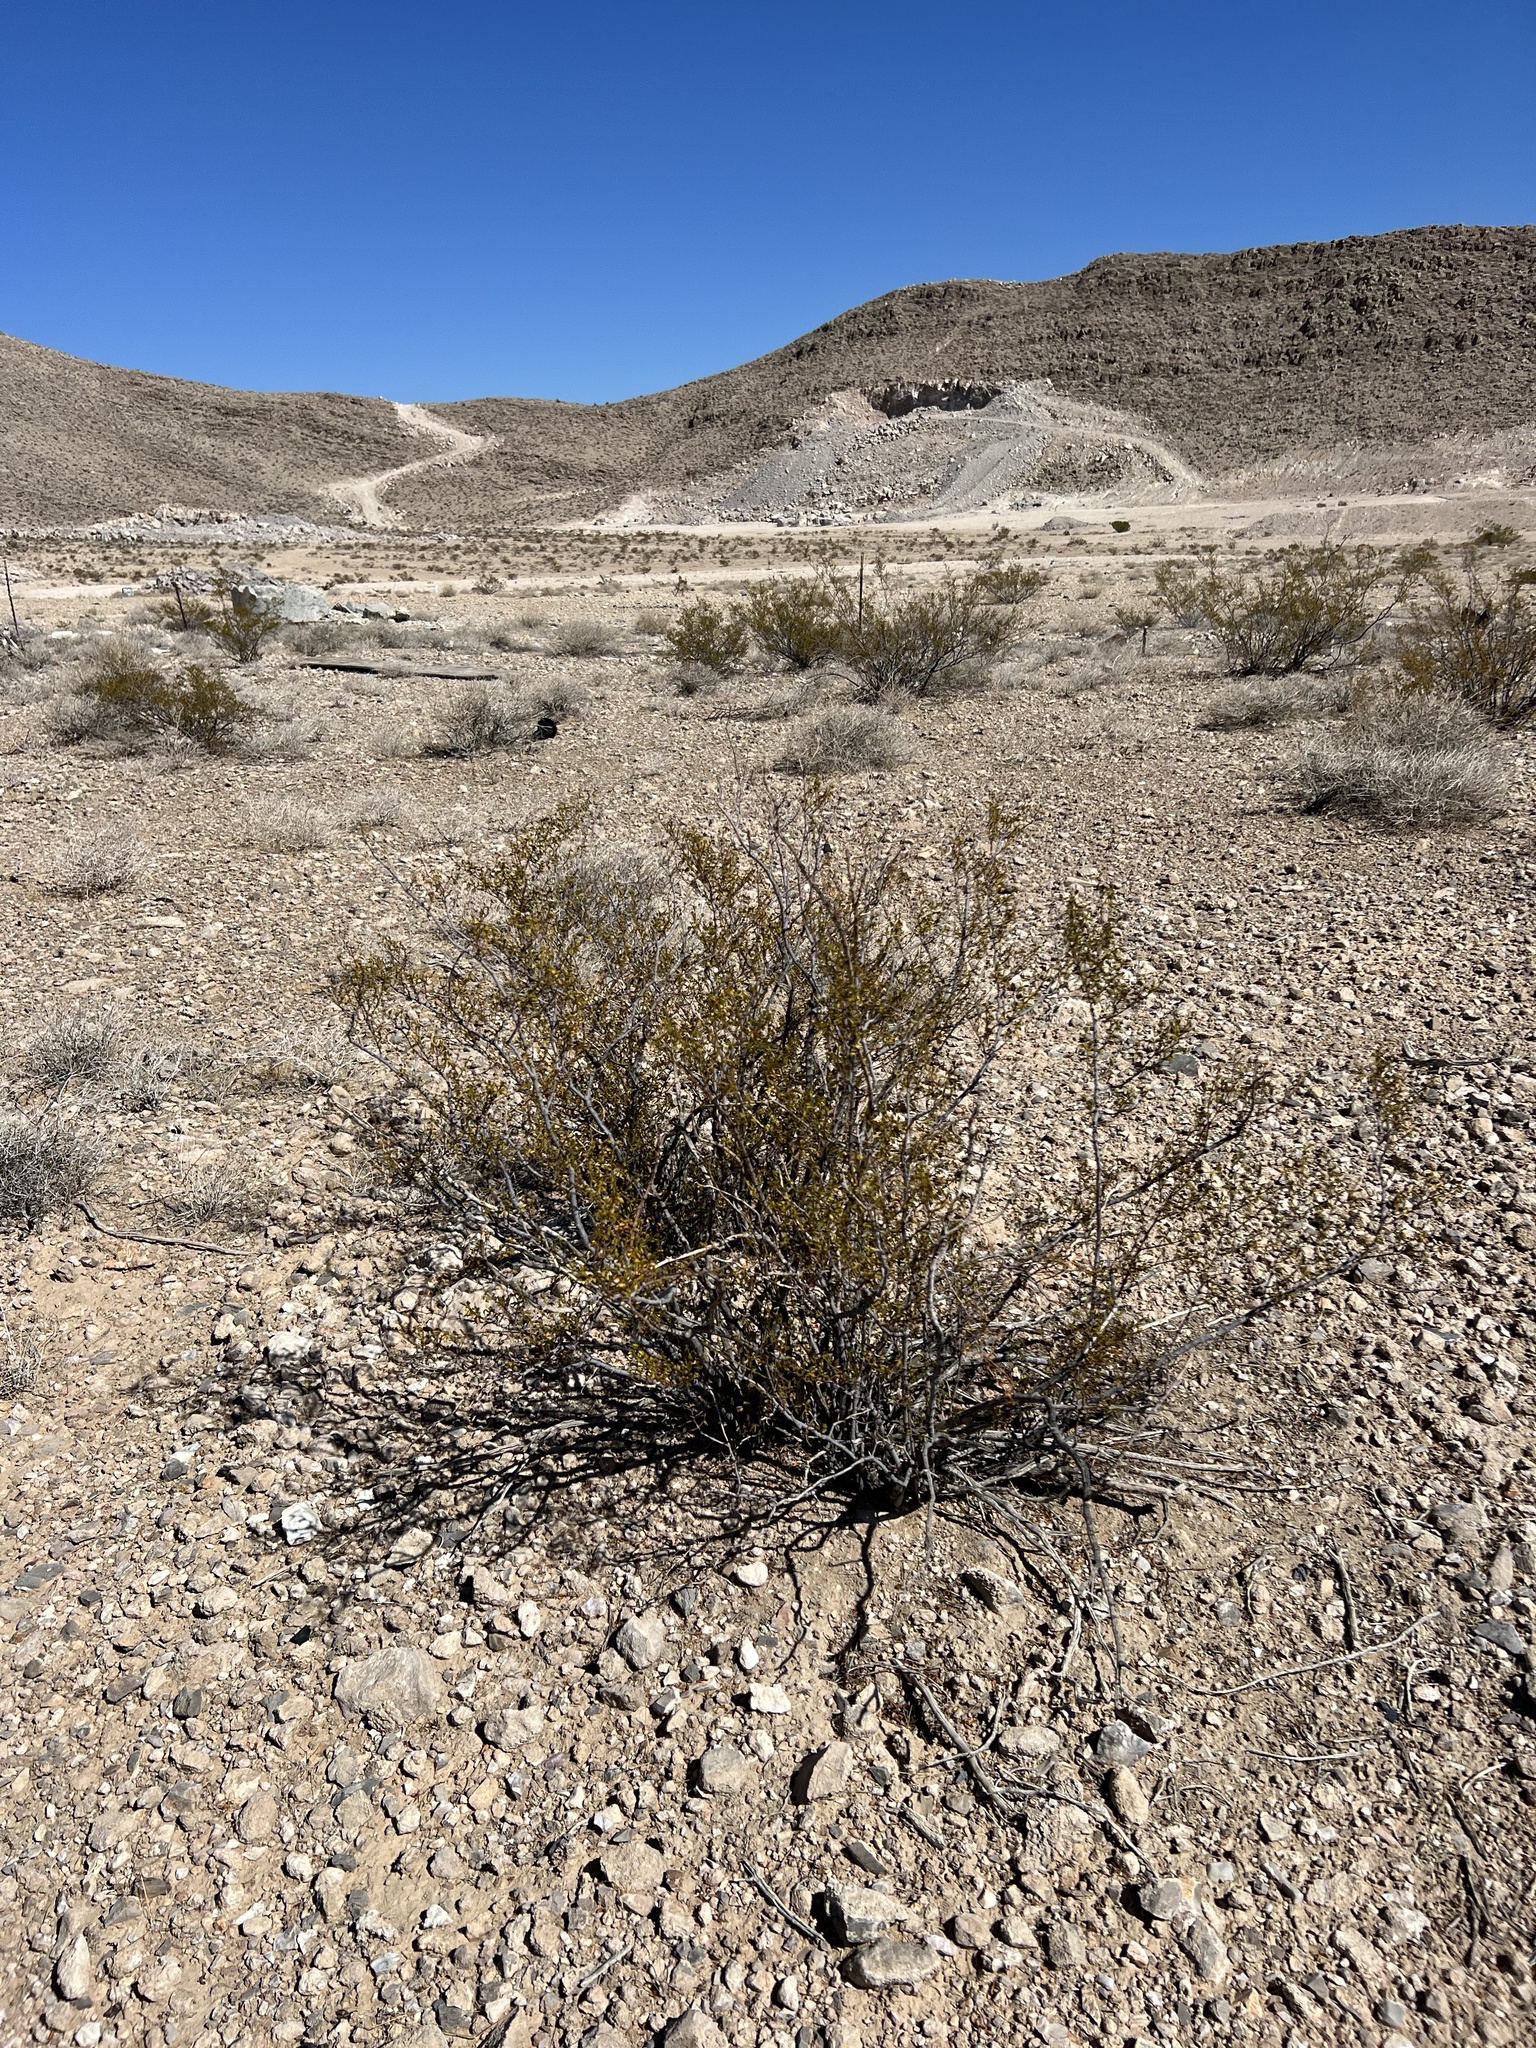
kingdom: Plantae
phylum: Tracheophyta
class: Magnoliopsida
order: Zygophyllales
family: Zygophyllaceae
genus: Larrea
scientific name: Larrea tridentata
